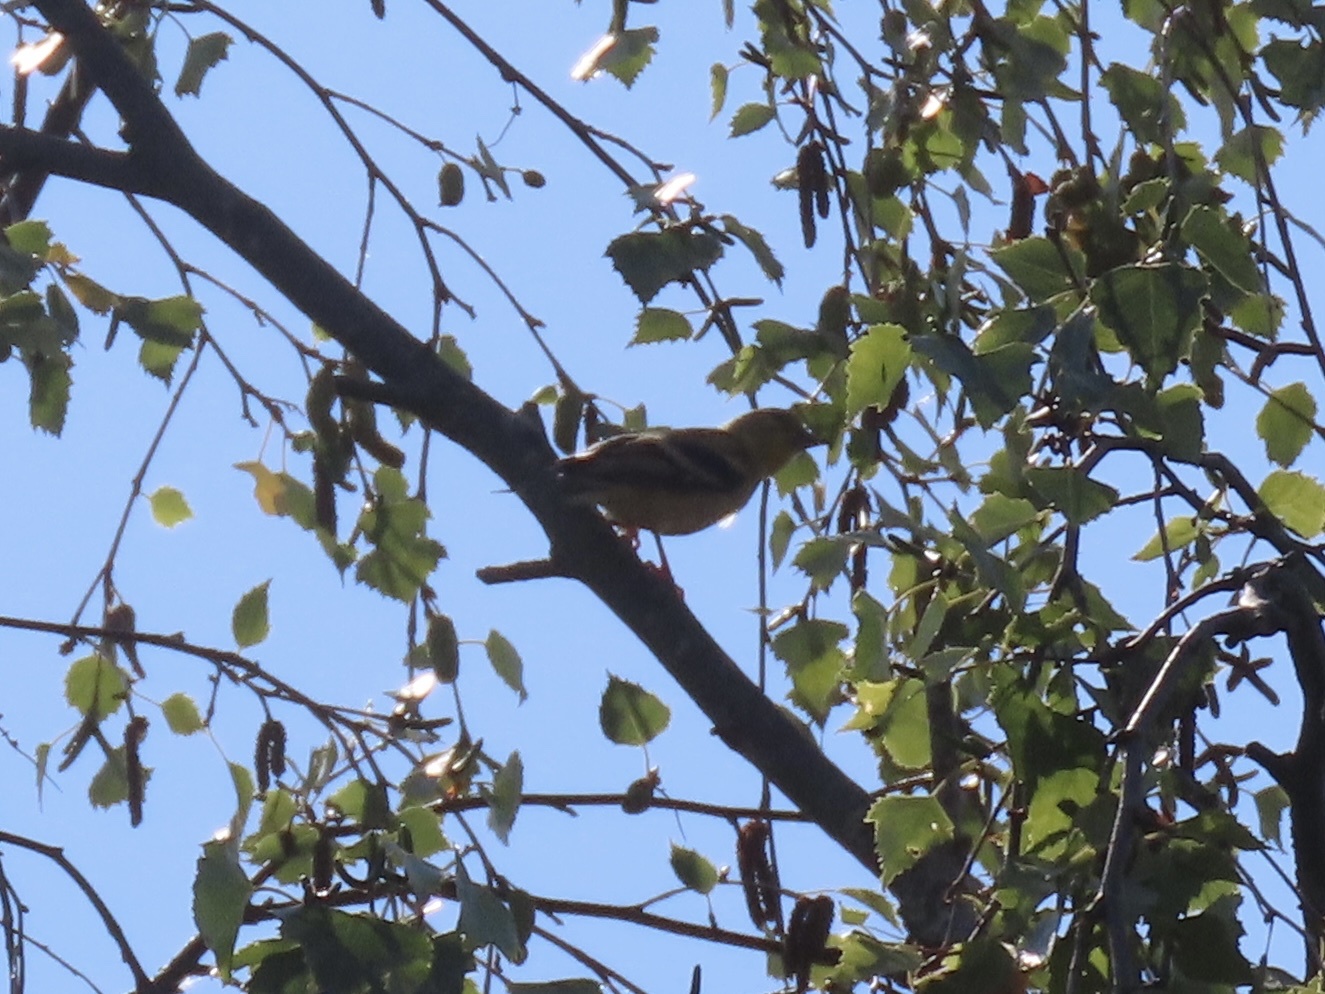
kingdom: Animalia
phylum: Chordata
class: Aves
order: Passeriformes
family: Fringillidae
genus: Spinus
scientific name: Spinus tristis
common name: American goldfinch
